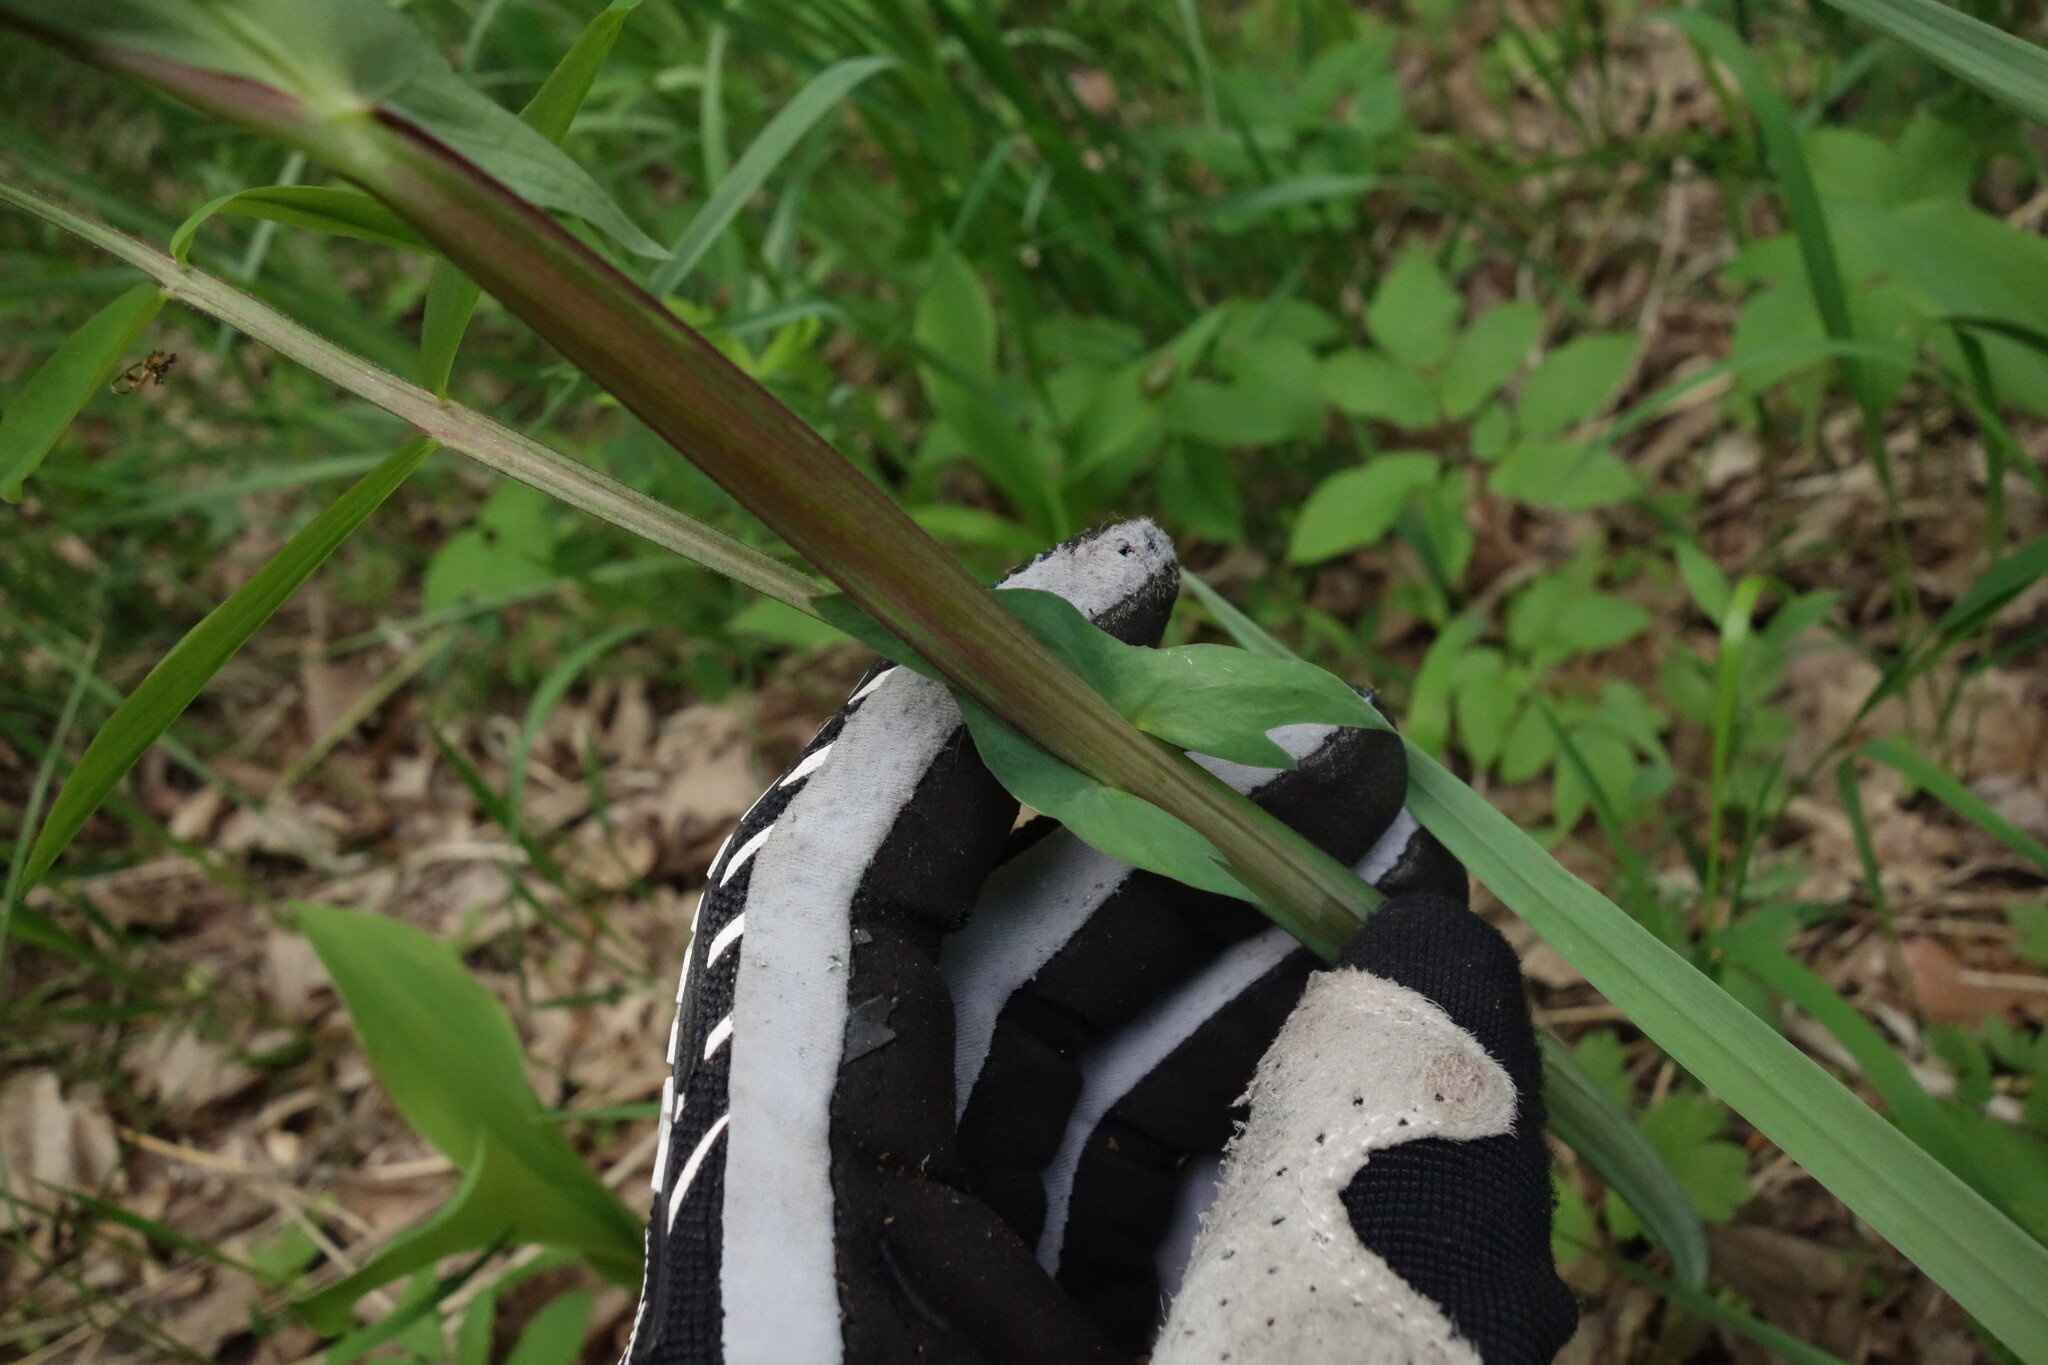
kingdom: Plantae
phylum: Tracheophyta
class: Magnoliopsida
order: Fabales
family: Fabaceae
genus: Lathyrus
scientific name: Lathyrus pisiformis
